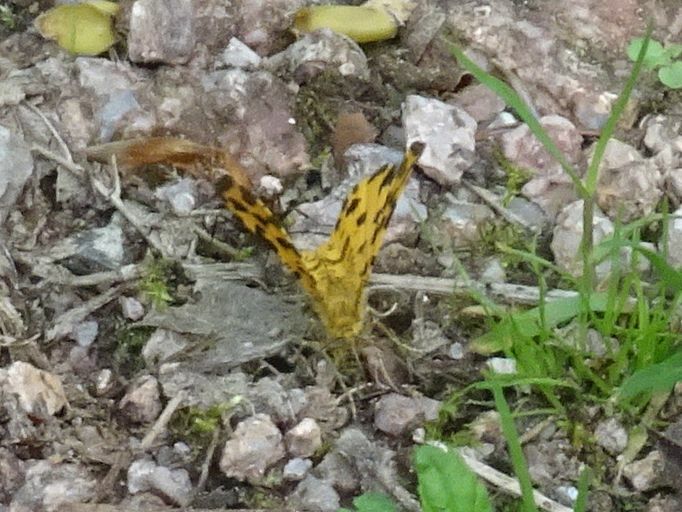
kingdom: Animalia
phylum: Arthropoda
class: Insecta
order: Lepidoptera
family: Geometridae
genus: Pseudopanthera
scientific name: Pseudopanthera macularia
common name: Speckled yellow
